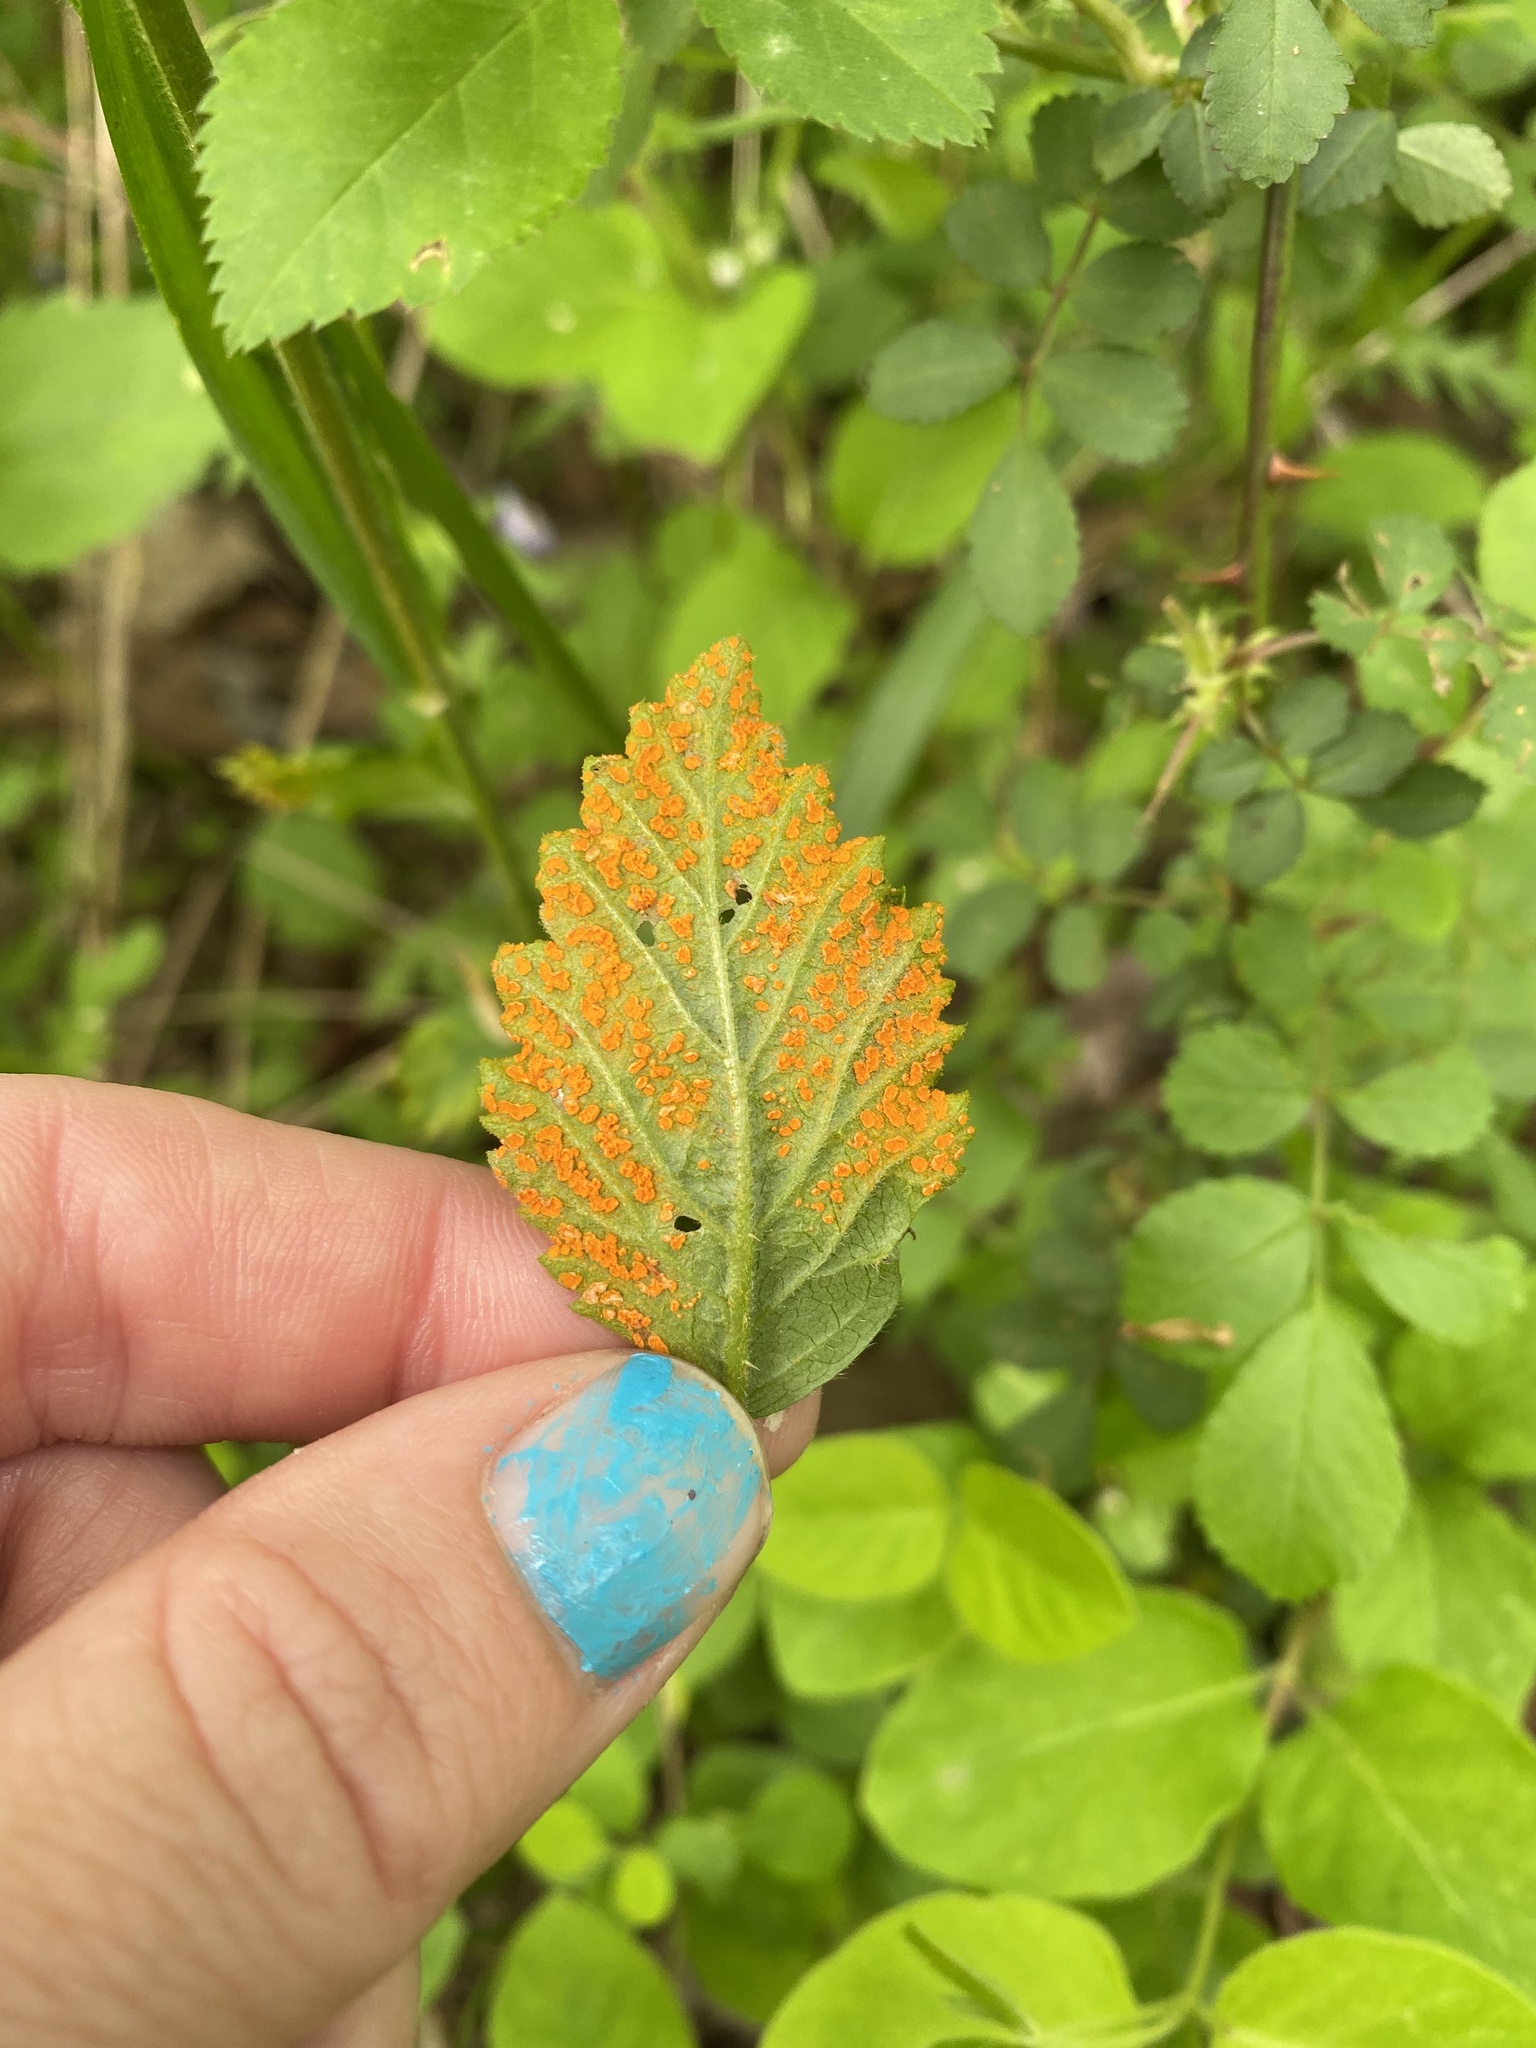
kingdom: Fungi
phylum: Basidiomycota
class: Pucciniomycetes
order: Pucciniales
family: Phragmidiaceae
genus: Arthuriomyces
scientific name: Arthuriomyces peckianus
